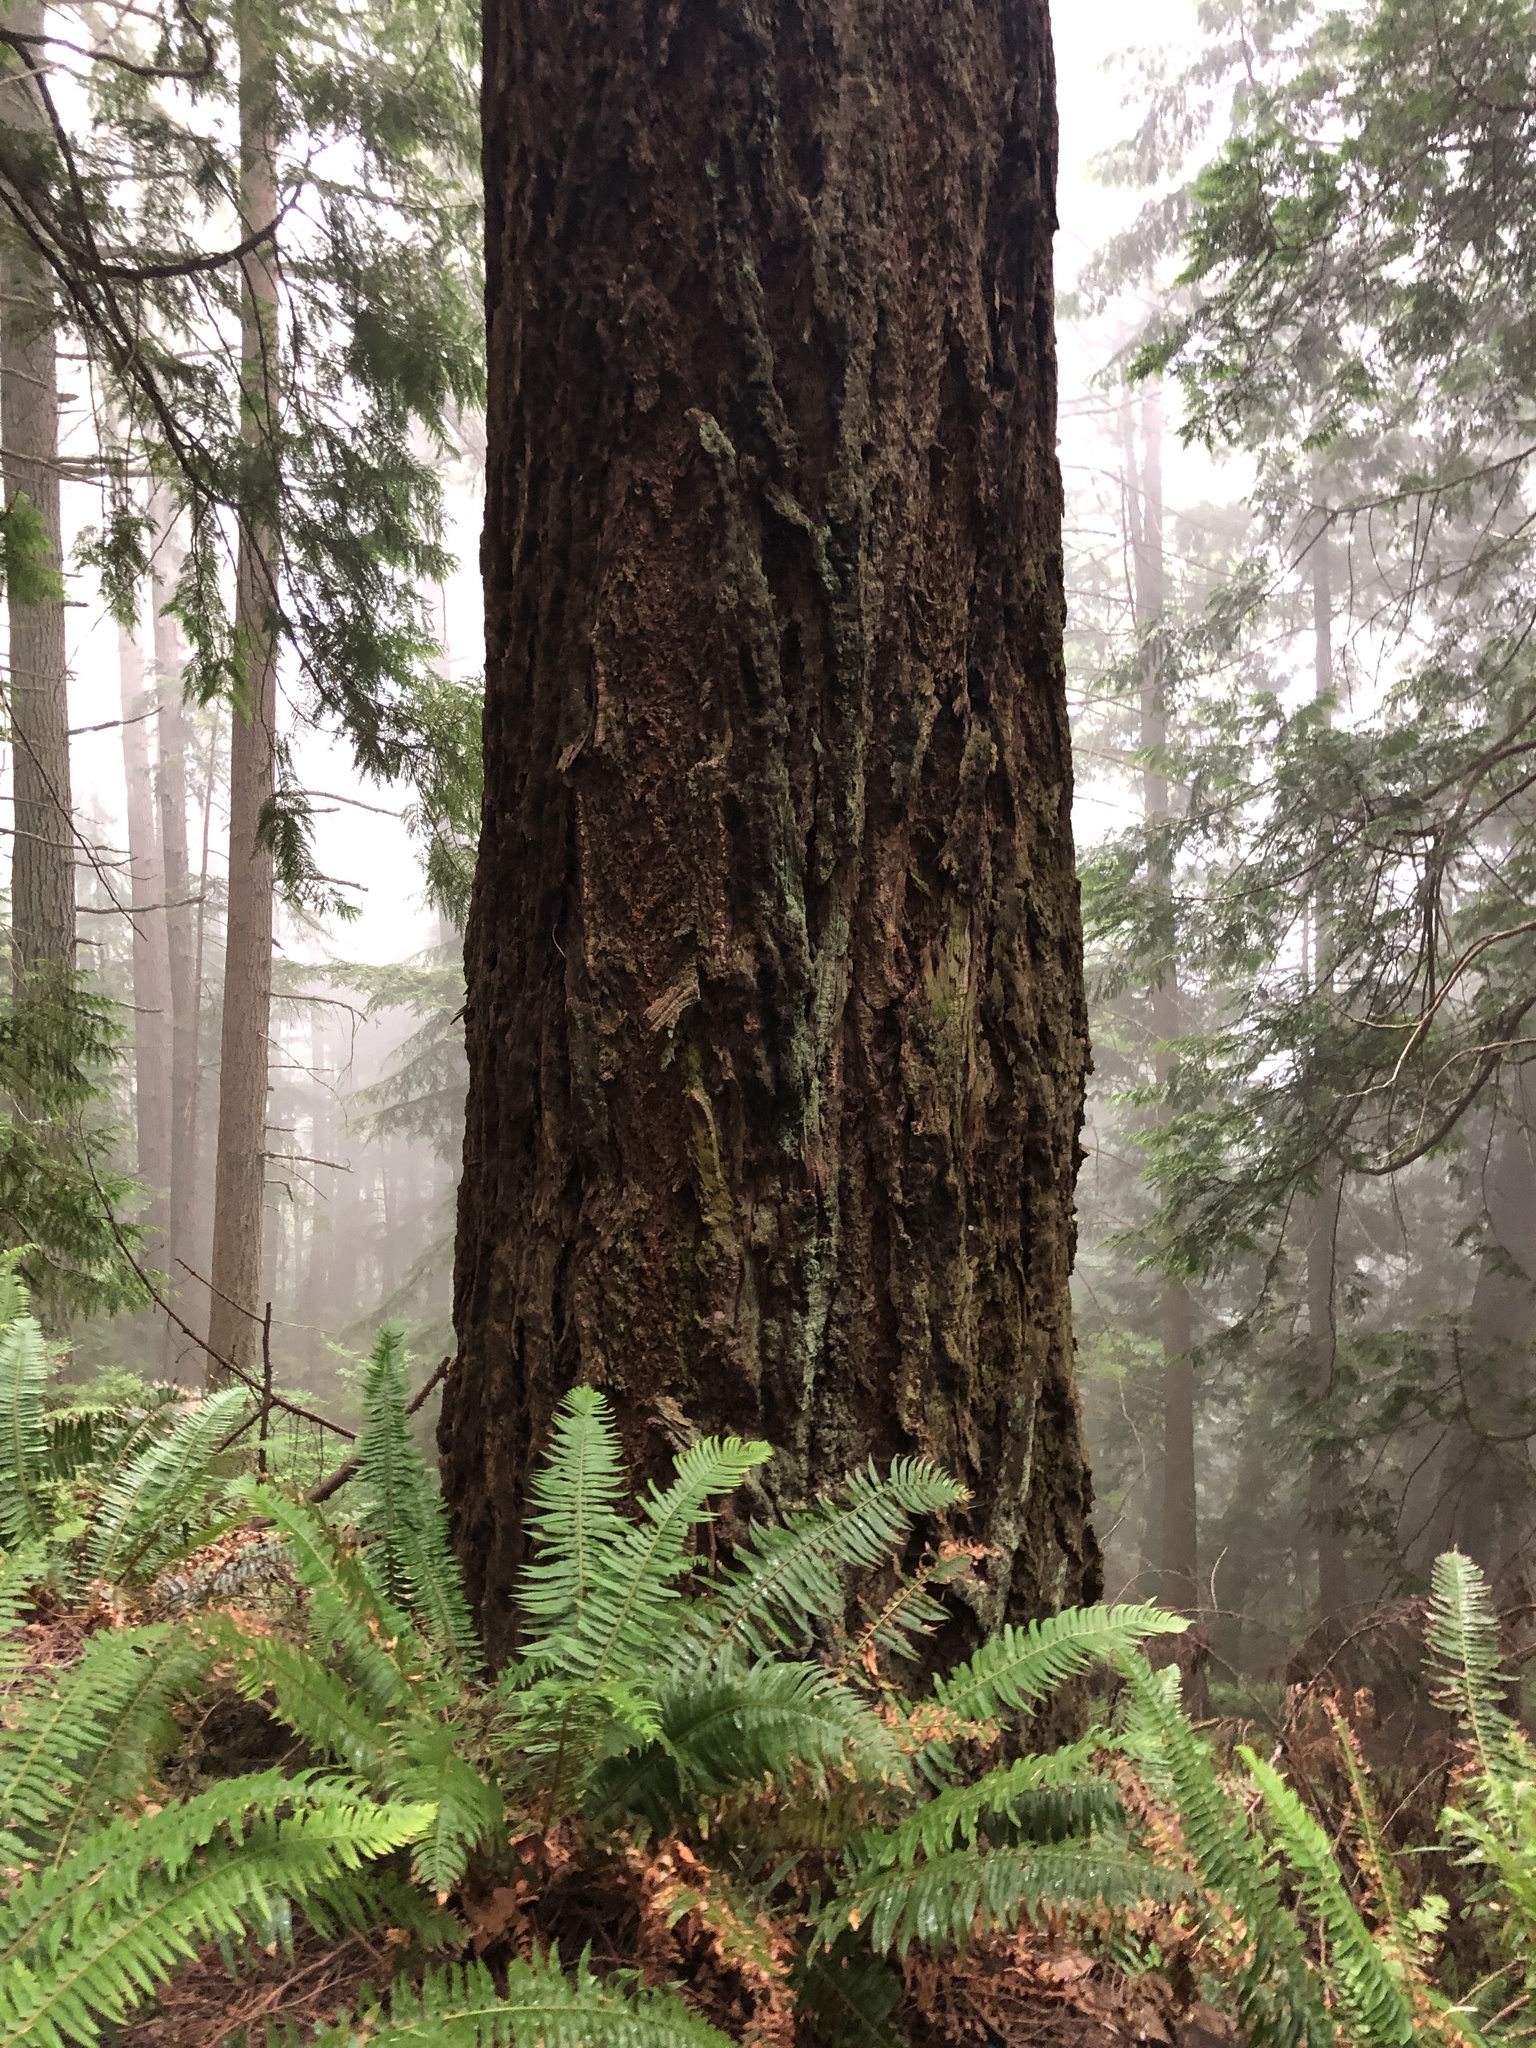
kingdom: Plantae
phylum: Tracheophyta
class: Pinopsida
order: Pinales
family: Pinaceae
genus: Pseudotsuga
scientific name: Pseudotsuga menziesii
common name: Douglas fir
